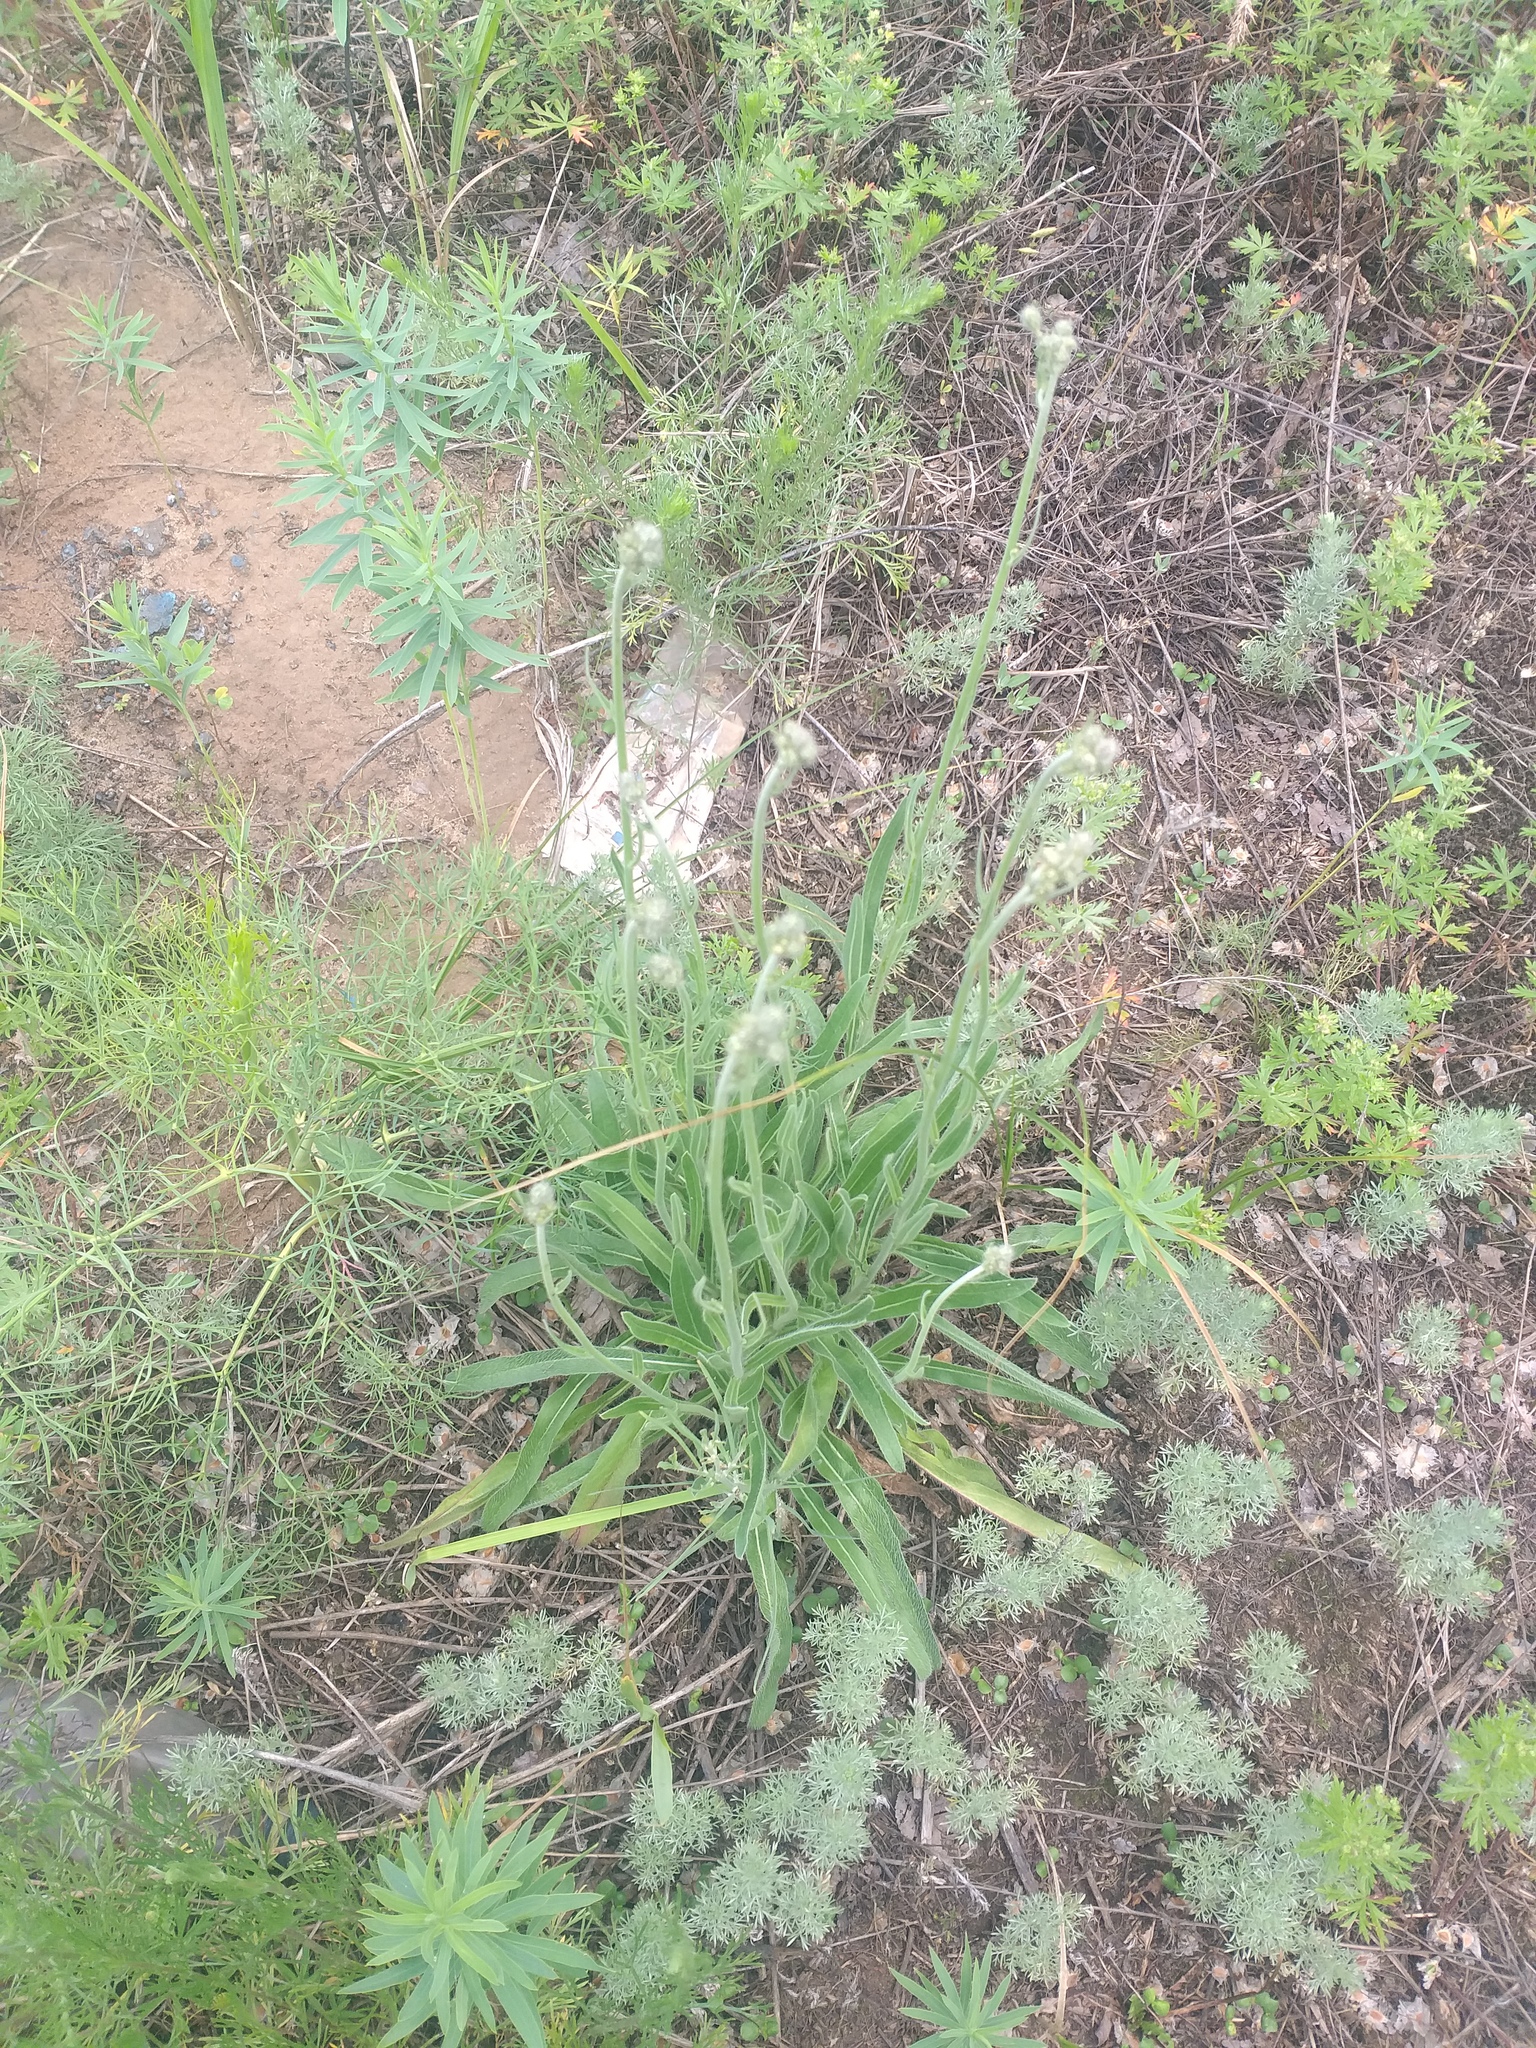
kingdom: Plantae
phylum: Tracheophyta
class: Magnoliopsida
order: Asterales
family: Asteraceae
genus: Pilosella
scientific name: Pilosella echioides
